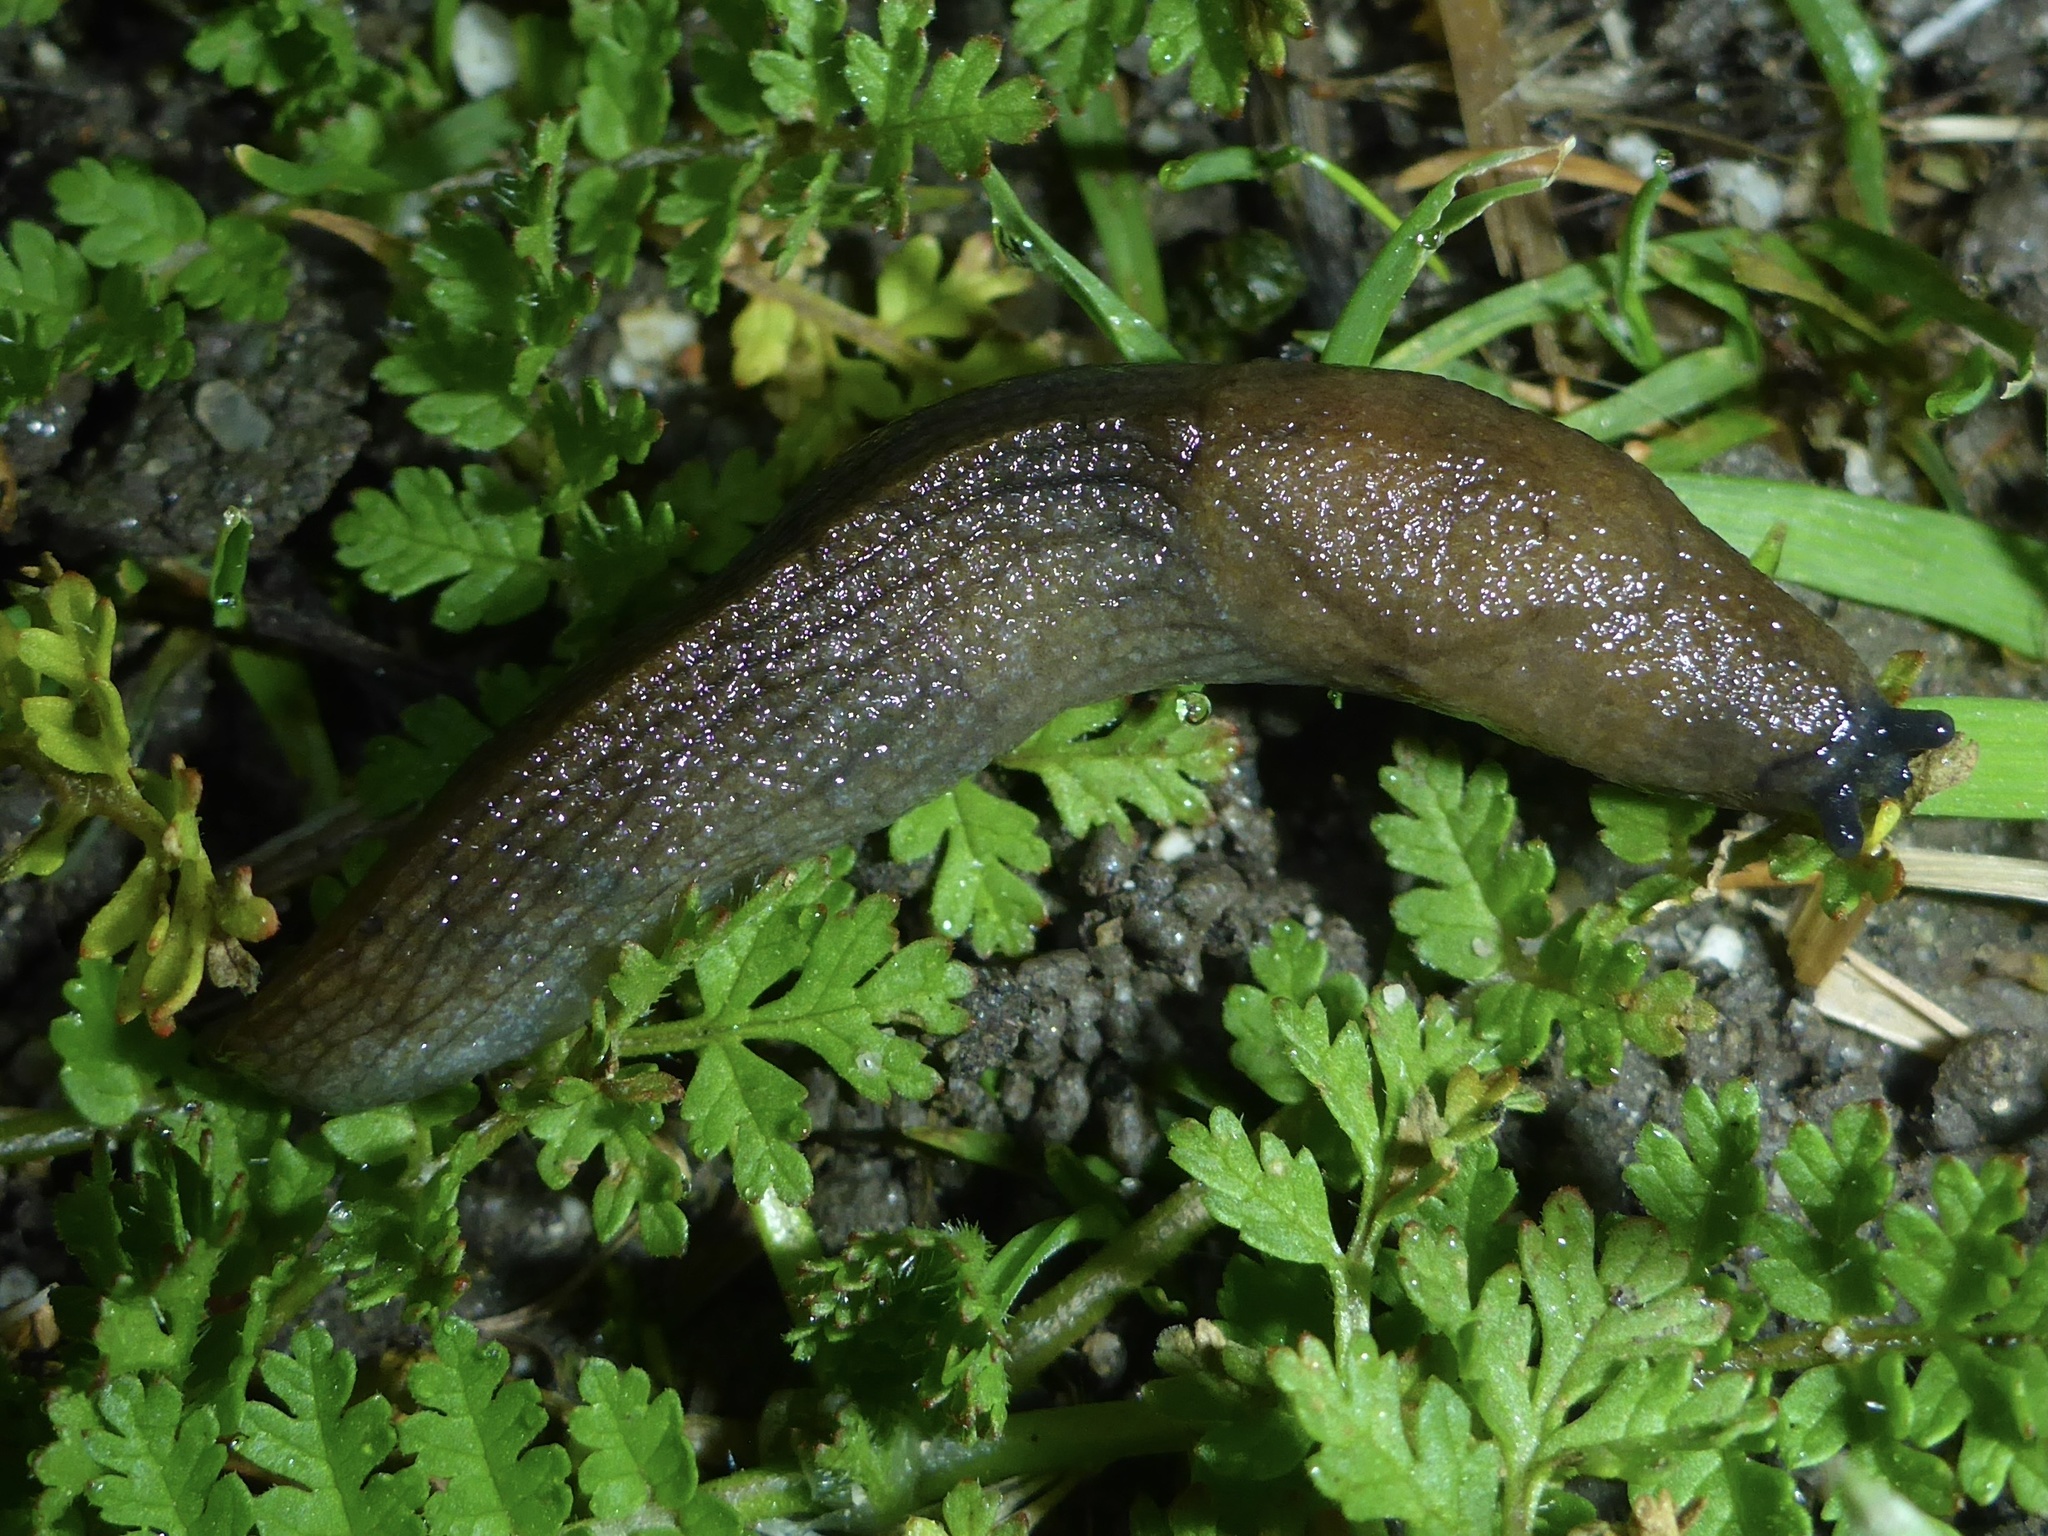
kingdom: Animalia
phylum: Mollusca
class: Gastropoda
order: Stylommatophora
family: Milacidae
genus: Milax
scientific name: Milax gagates
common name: Greenhouse slug
